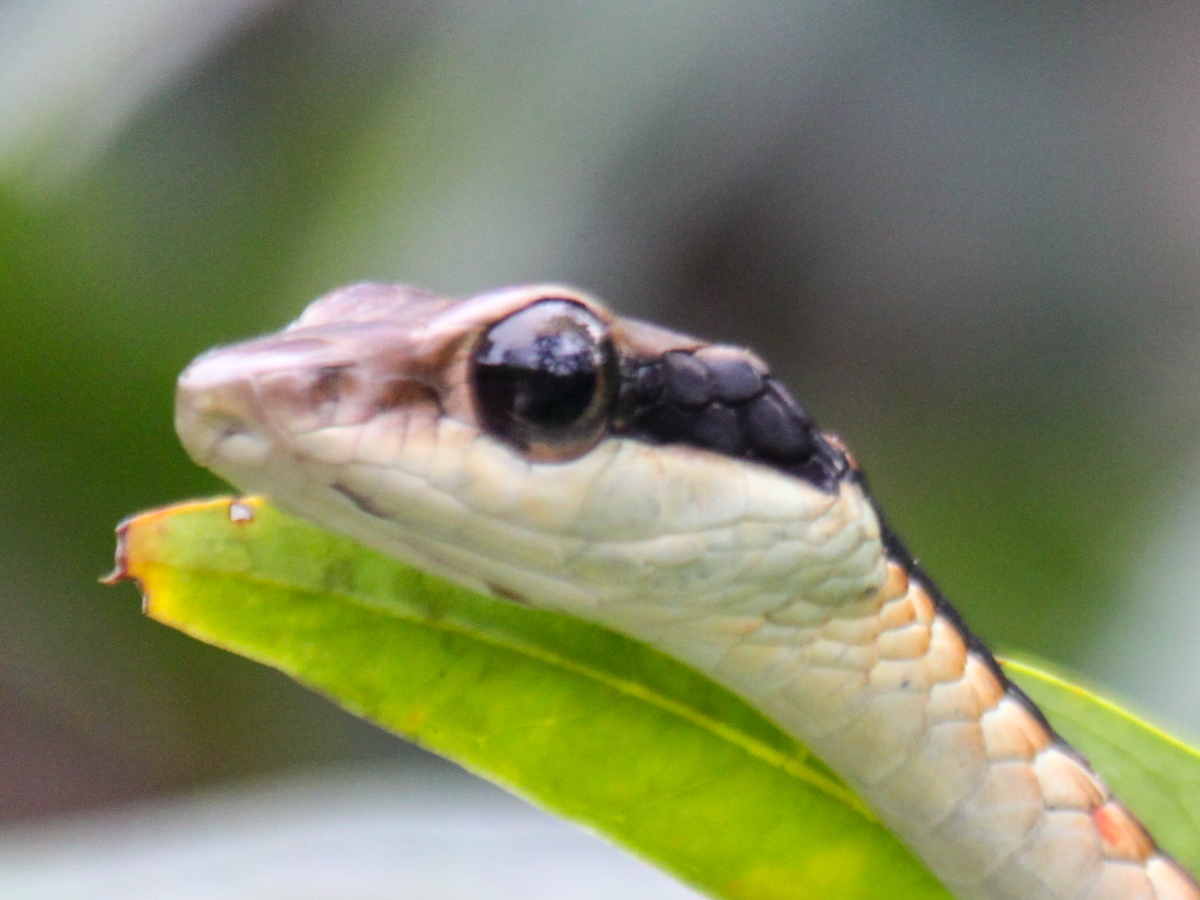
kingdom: Animalia
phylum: Chordata
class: Squamata
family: Colubridae
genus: Dendrelaphis
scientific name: Dendrelaphis ngansonensis
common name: Nganson bronzeback tree snake
